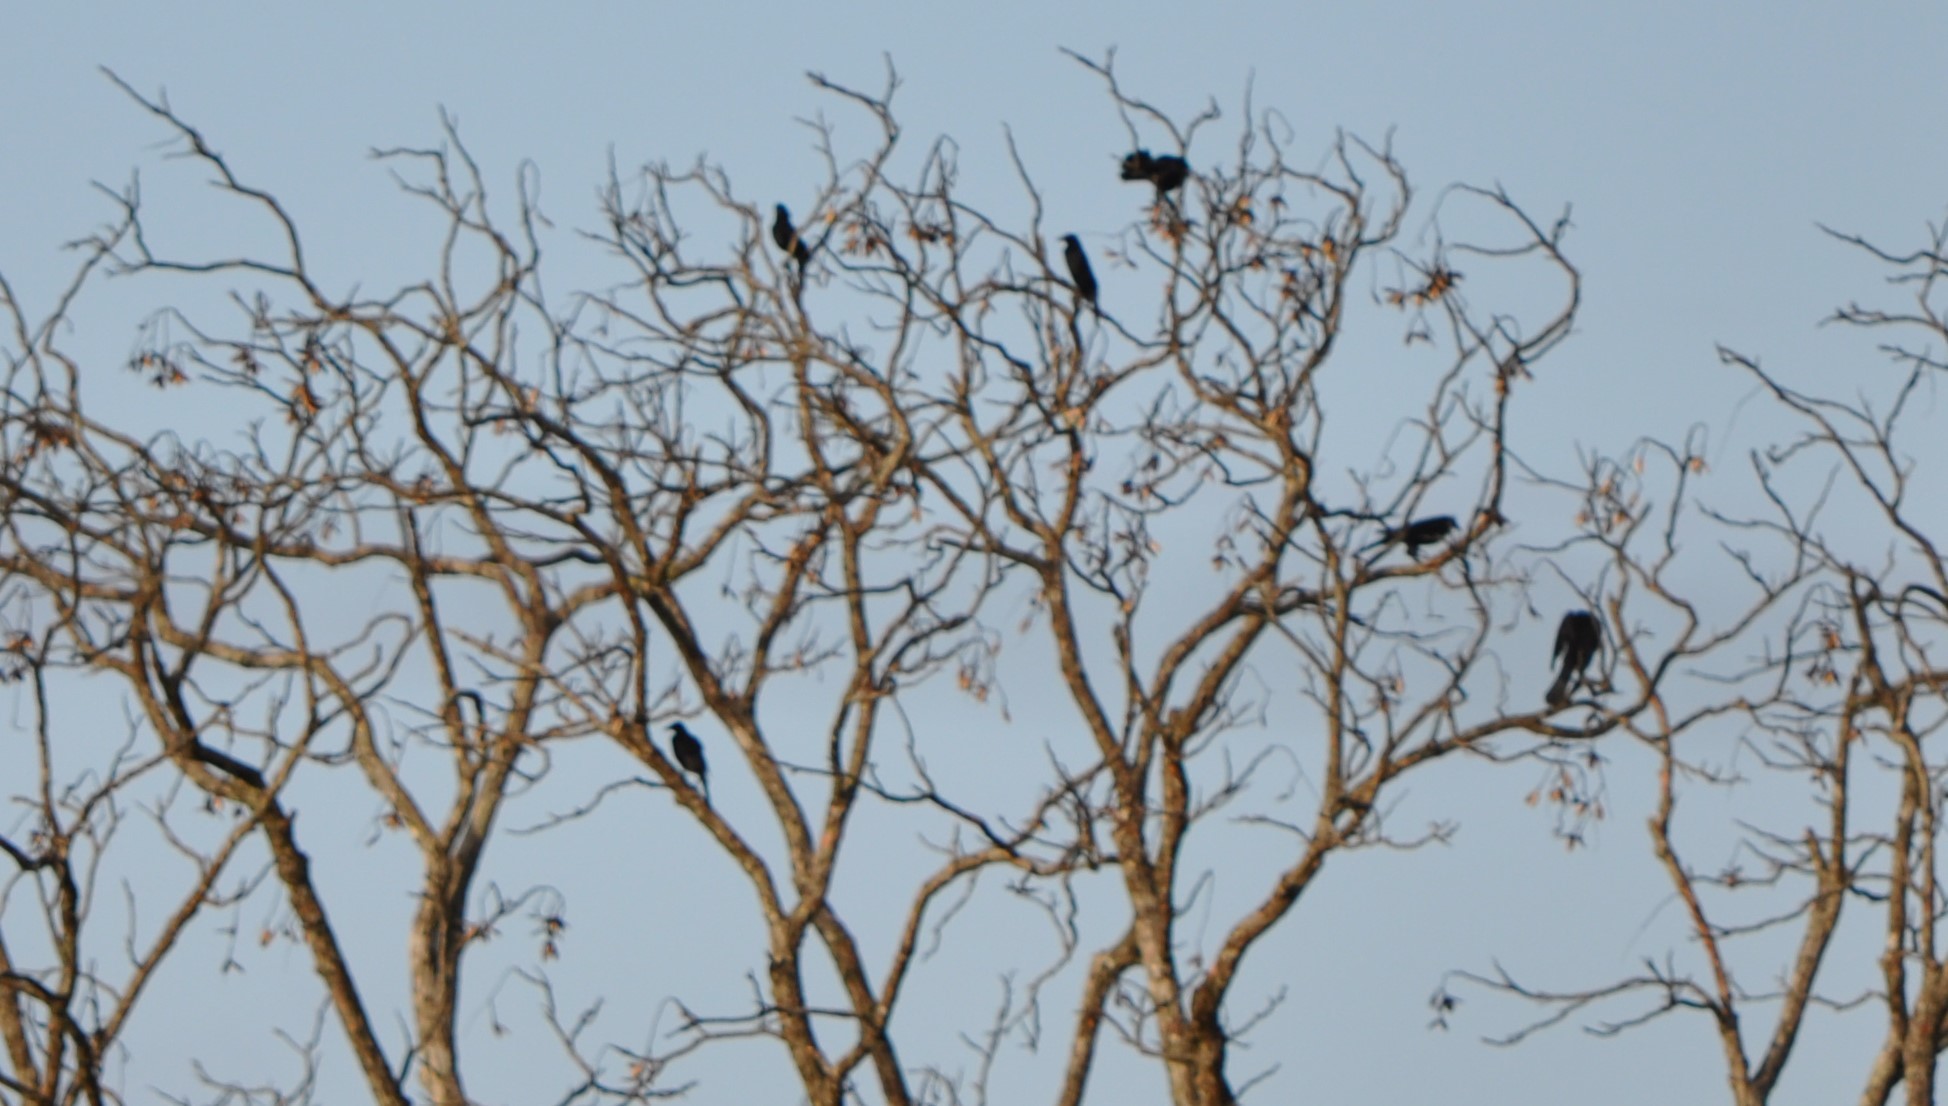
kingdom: Animalia
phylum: Chordata
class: Aves
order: Passeriformes
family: Icteridae
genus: Molothrus
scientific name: Molothrus oryzivorus
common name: Giant cowbird
